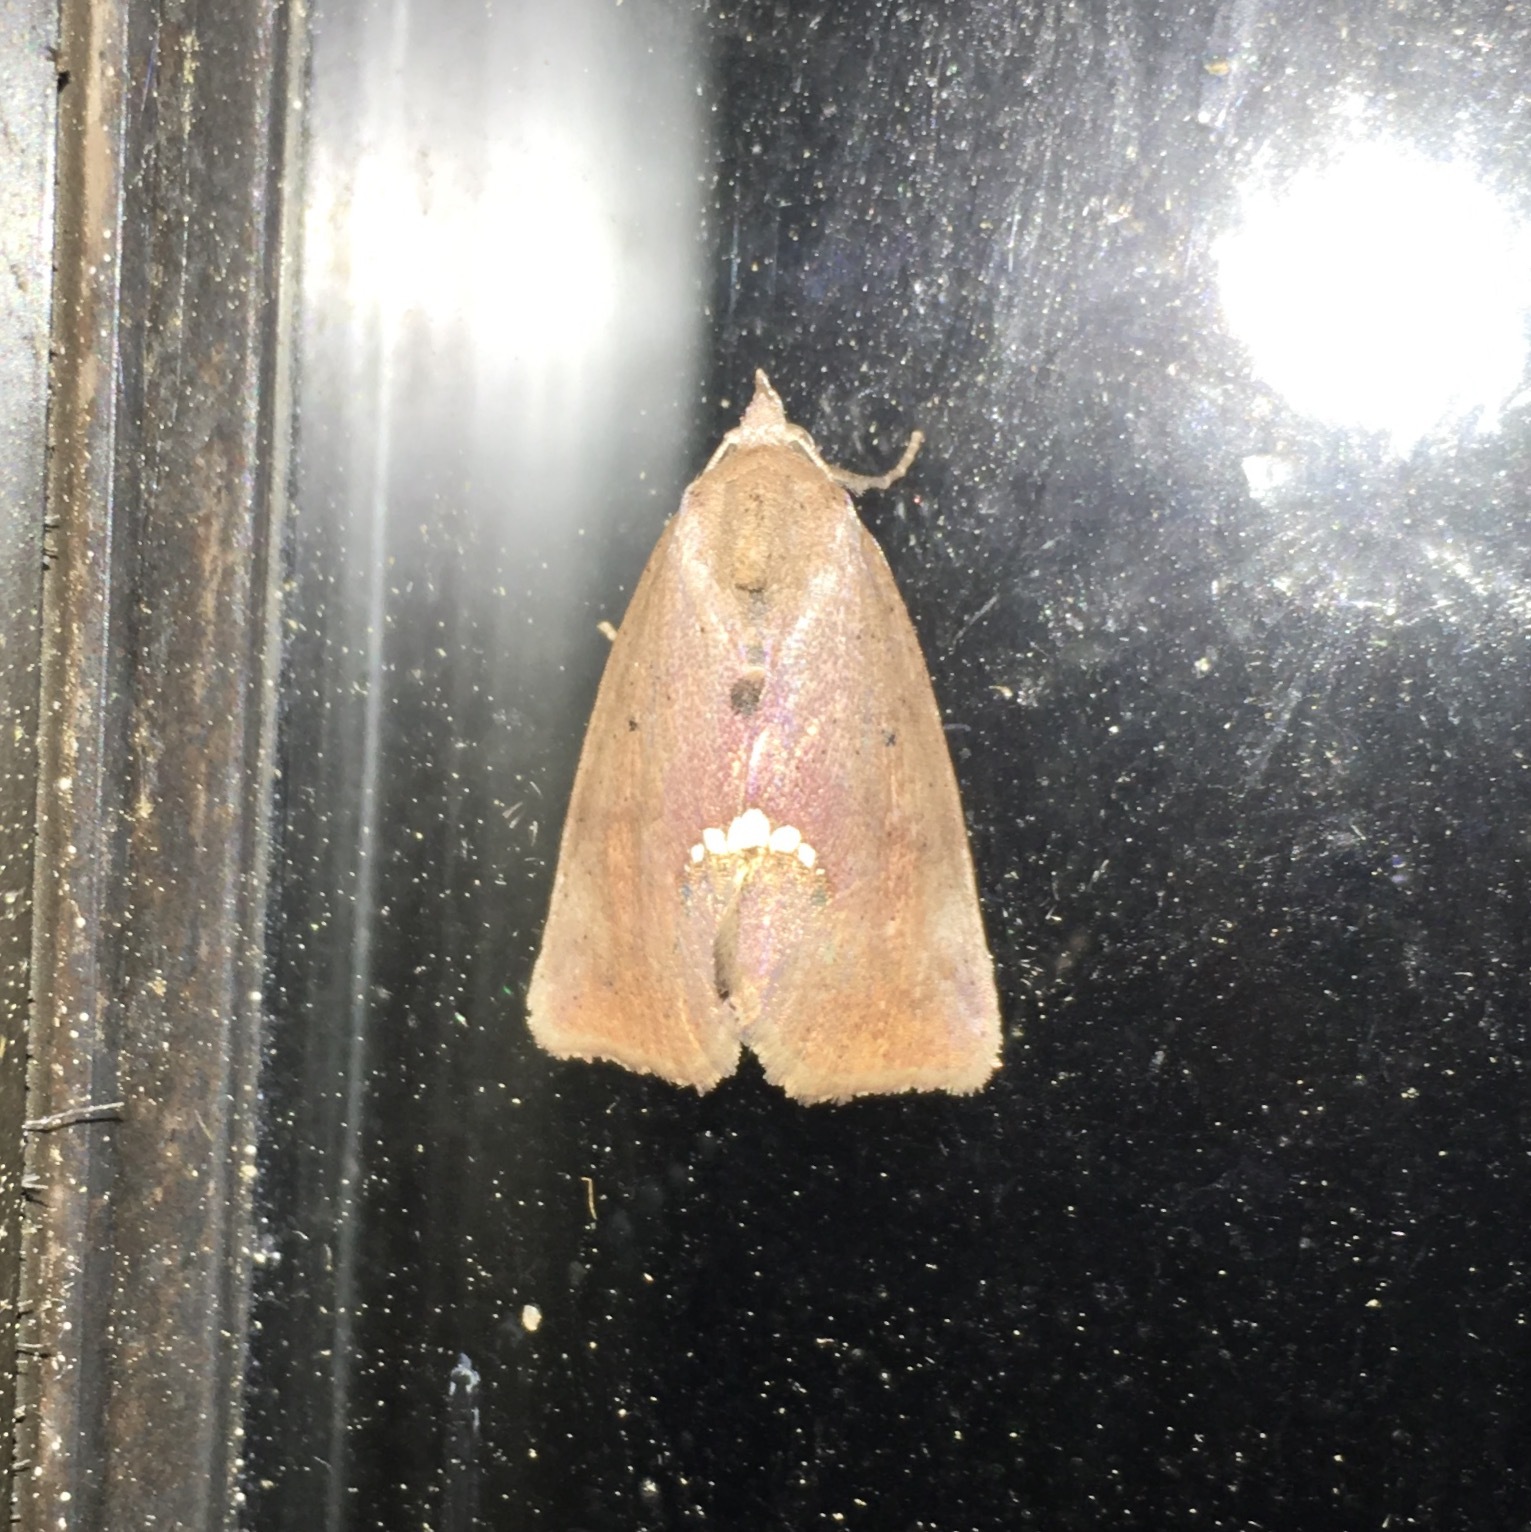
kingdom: Animalia
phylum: Arthropoda
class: Insecta
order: Lepidoptera
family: Erebidae
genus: Hypsoropha
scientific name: Hypsoropha hormos
